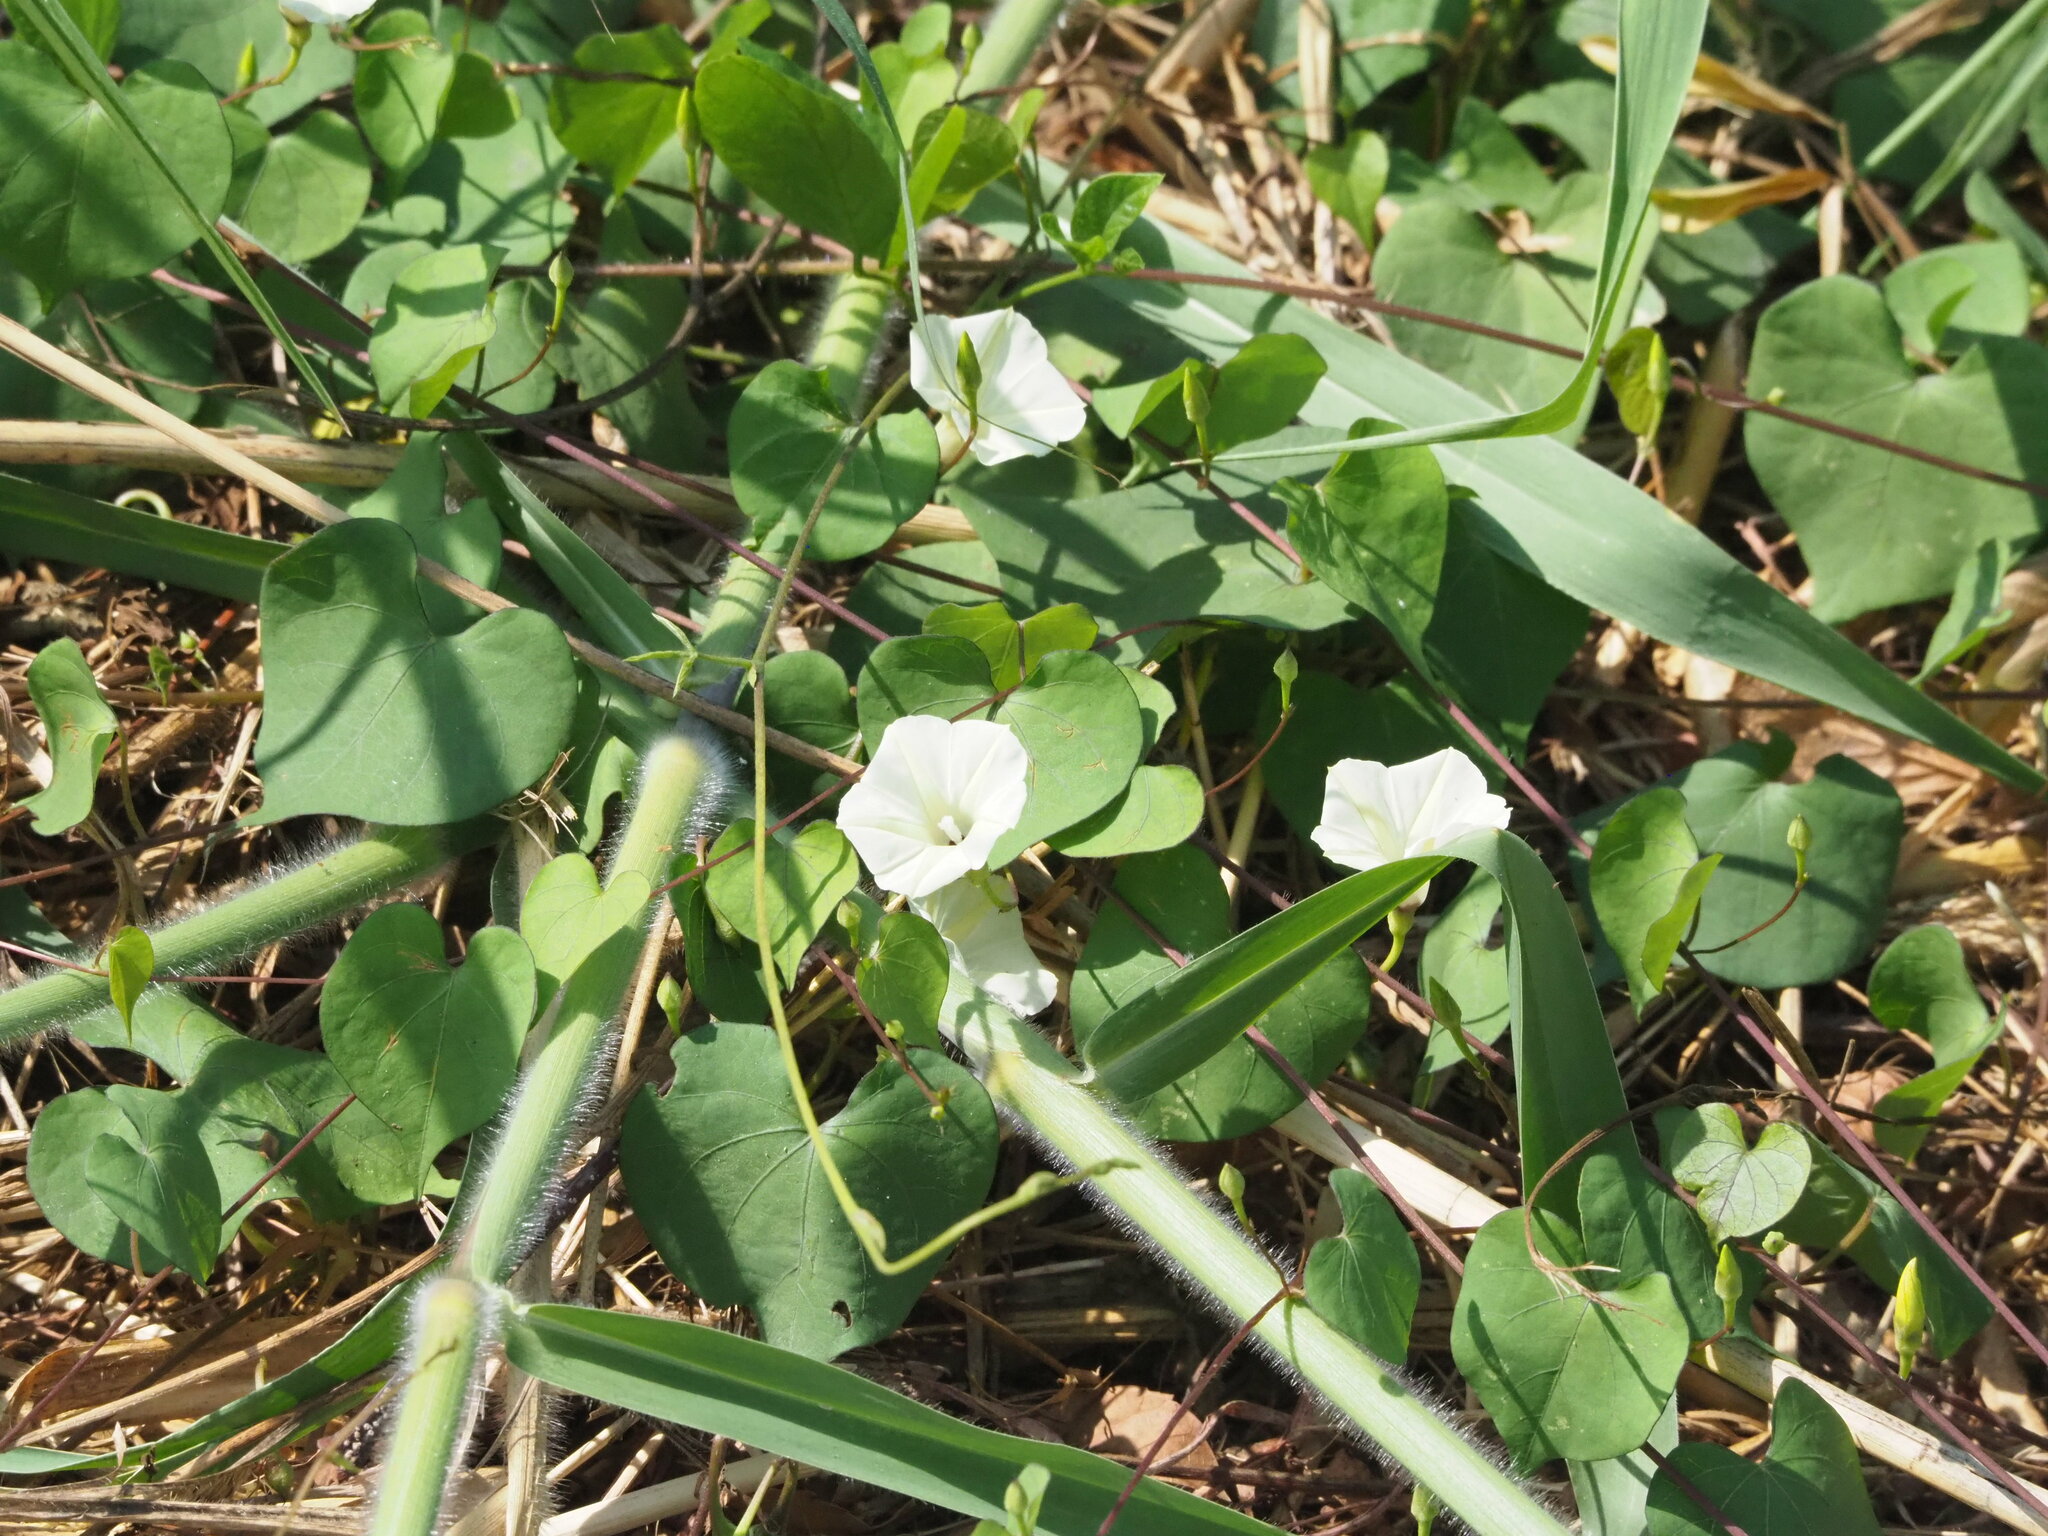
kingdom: Plantae
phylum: Tracheophyta
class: Magnoliopsida
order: Solanales
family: Convolvulaceae
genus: Ipomoea
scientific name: Ipomoea obscura
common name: Obscure morning-glory
